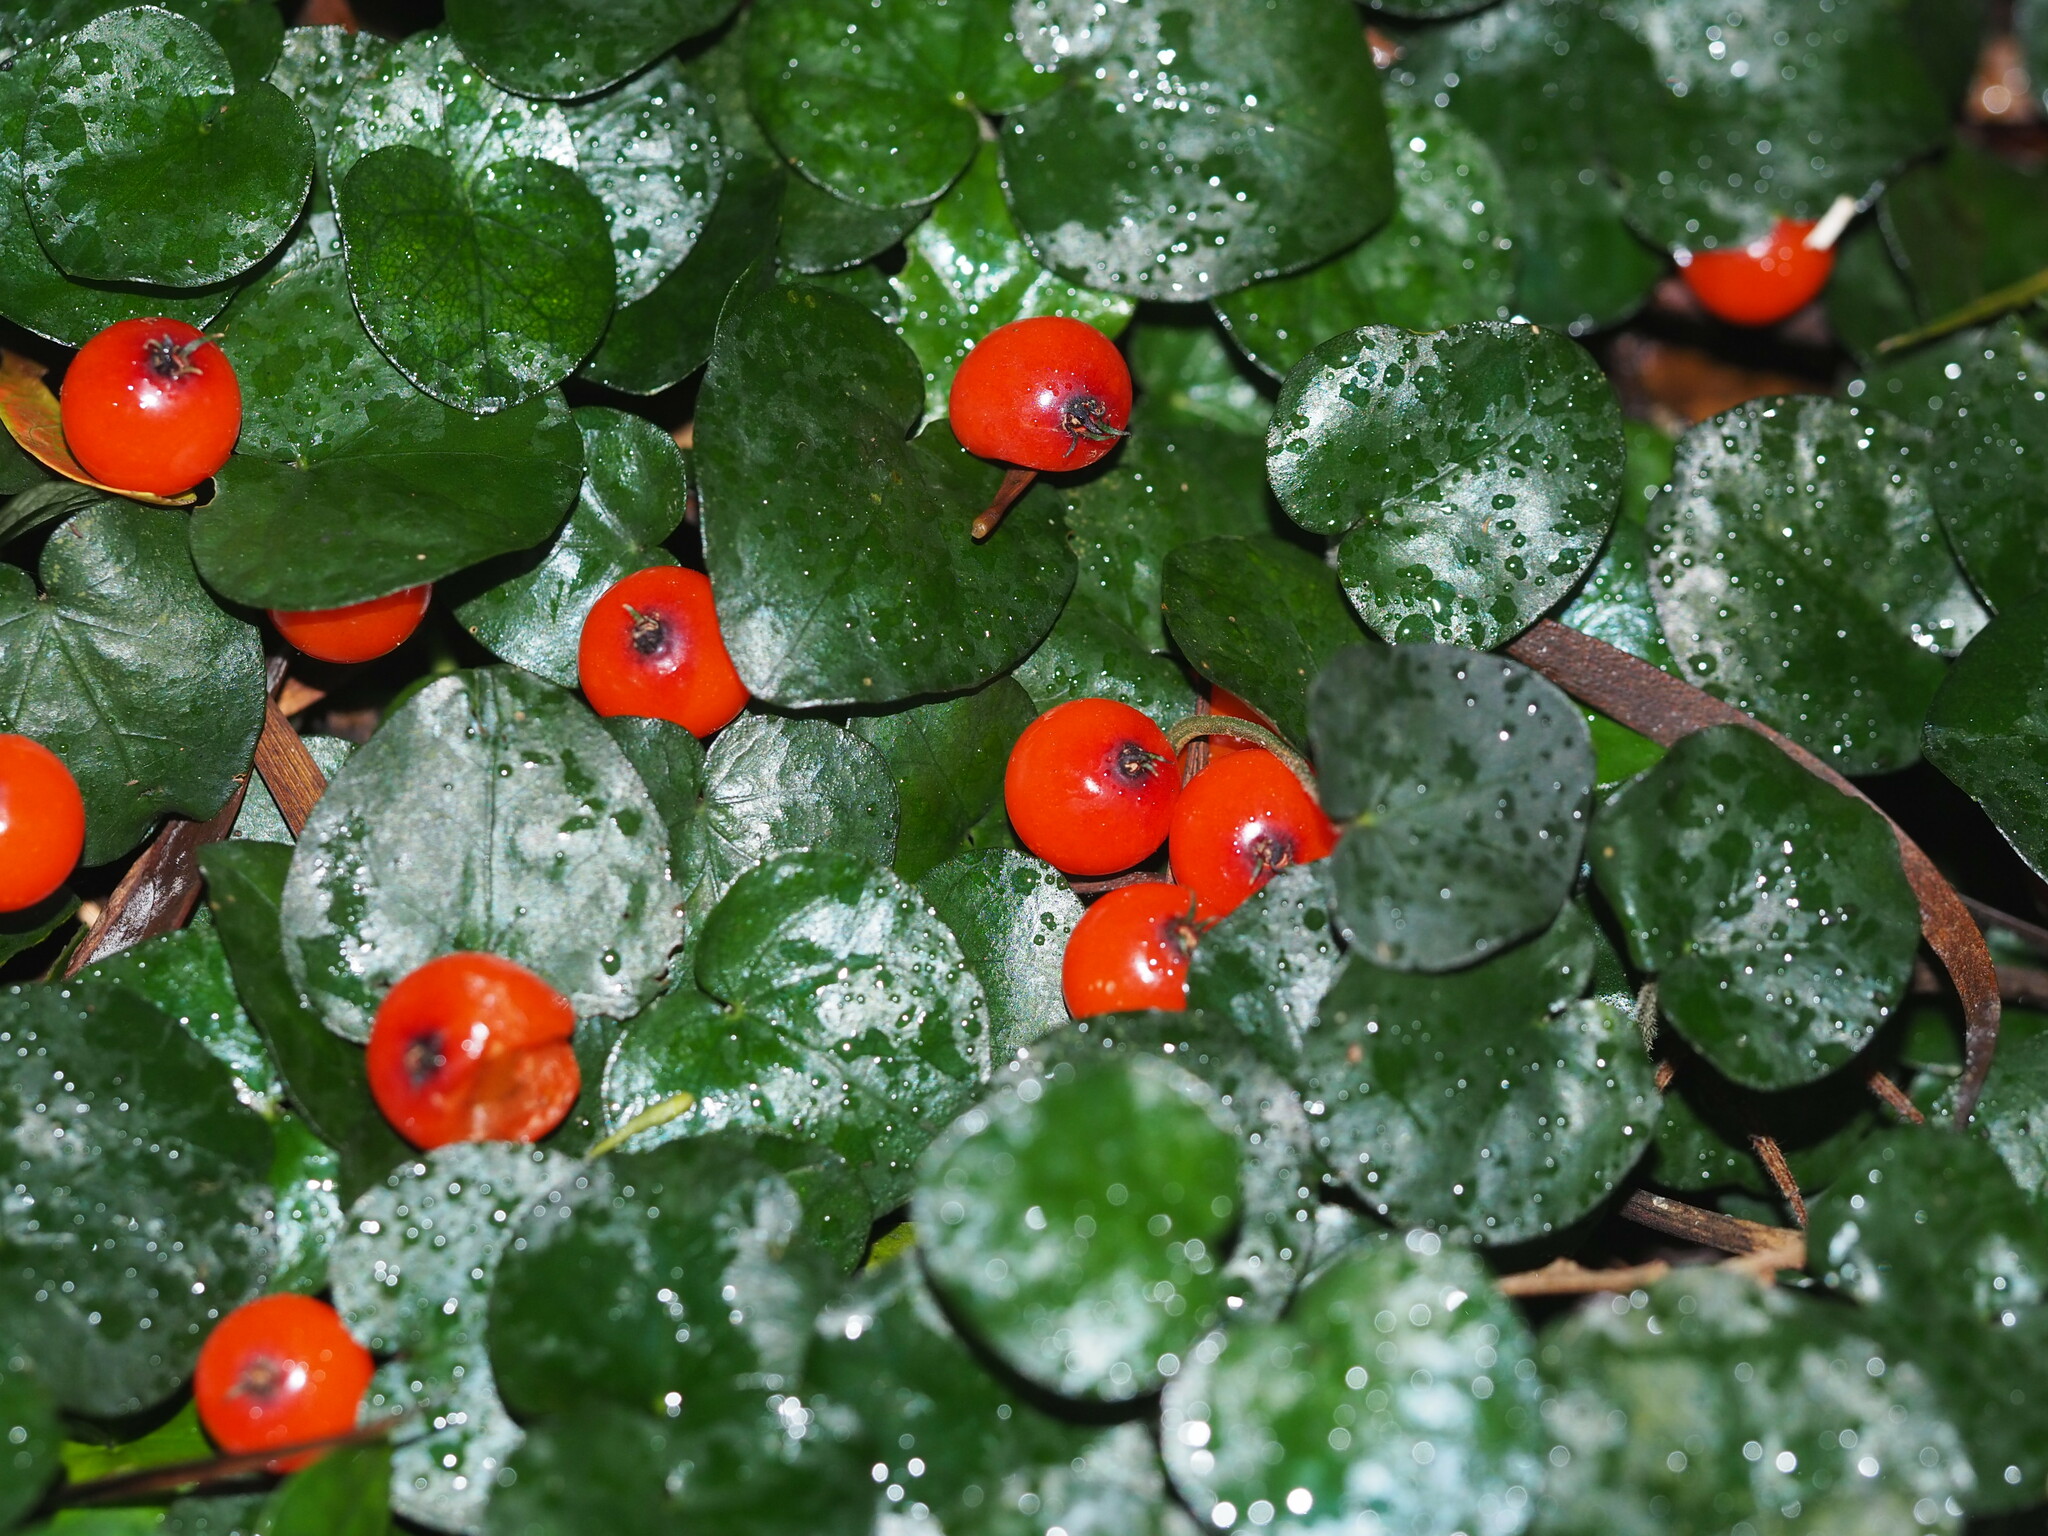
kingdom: Plantae
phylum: Tracheophyta
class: Magnoliopsida
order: Gentianales
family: Rubiaceae
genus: Geophila
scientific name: Geophila herbacea
